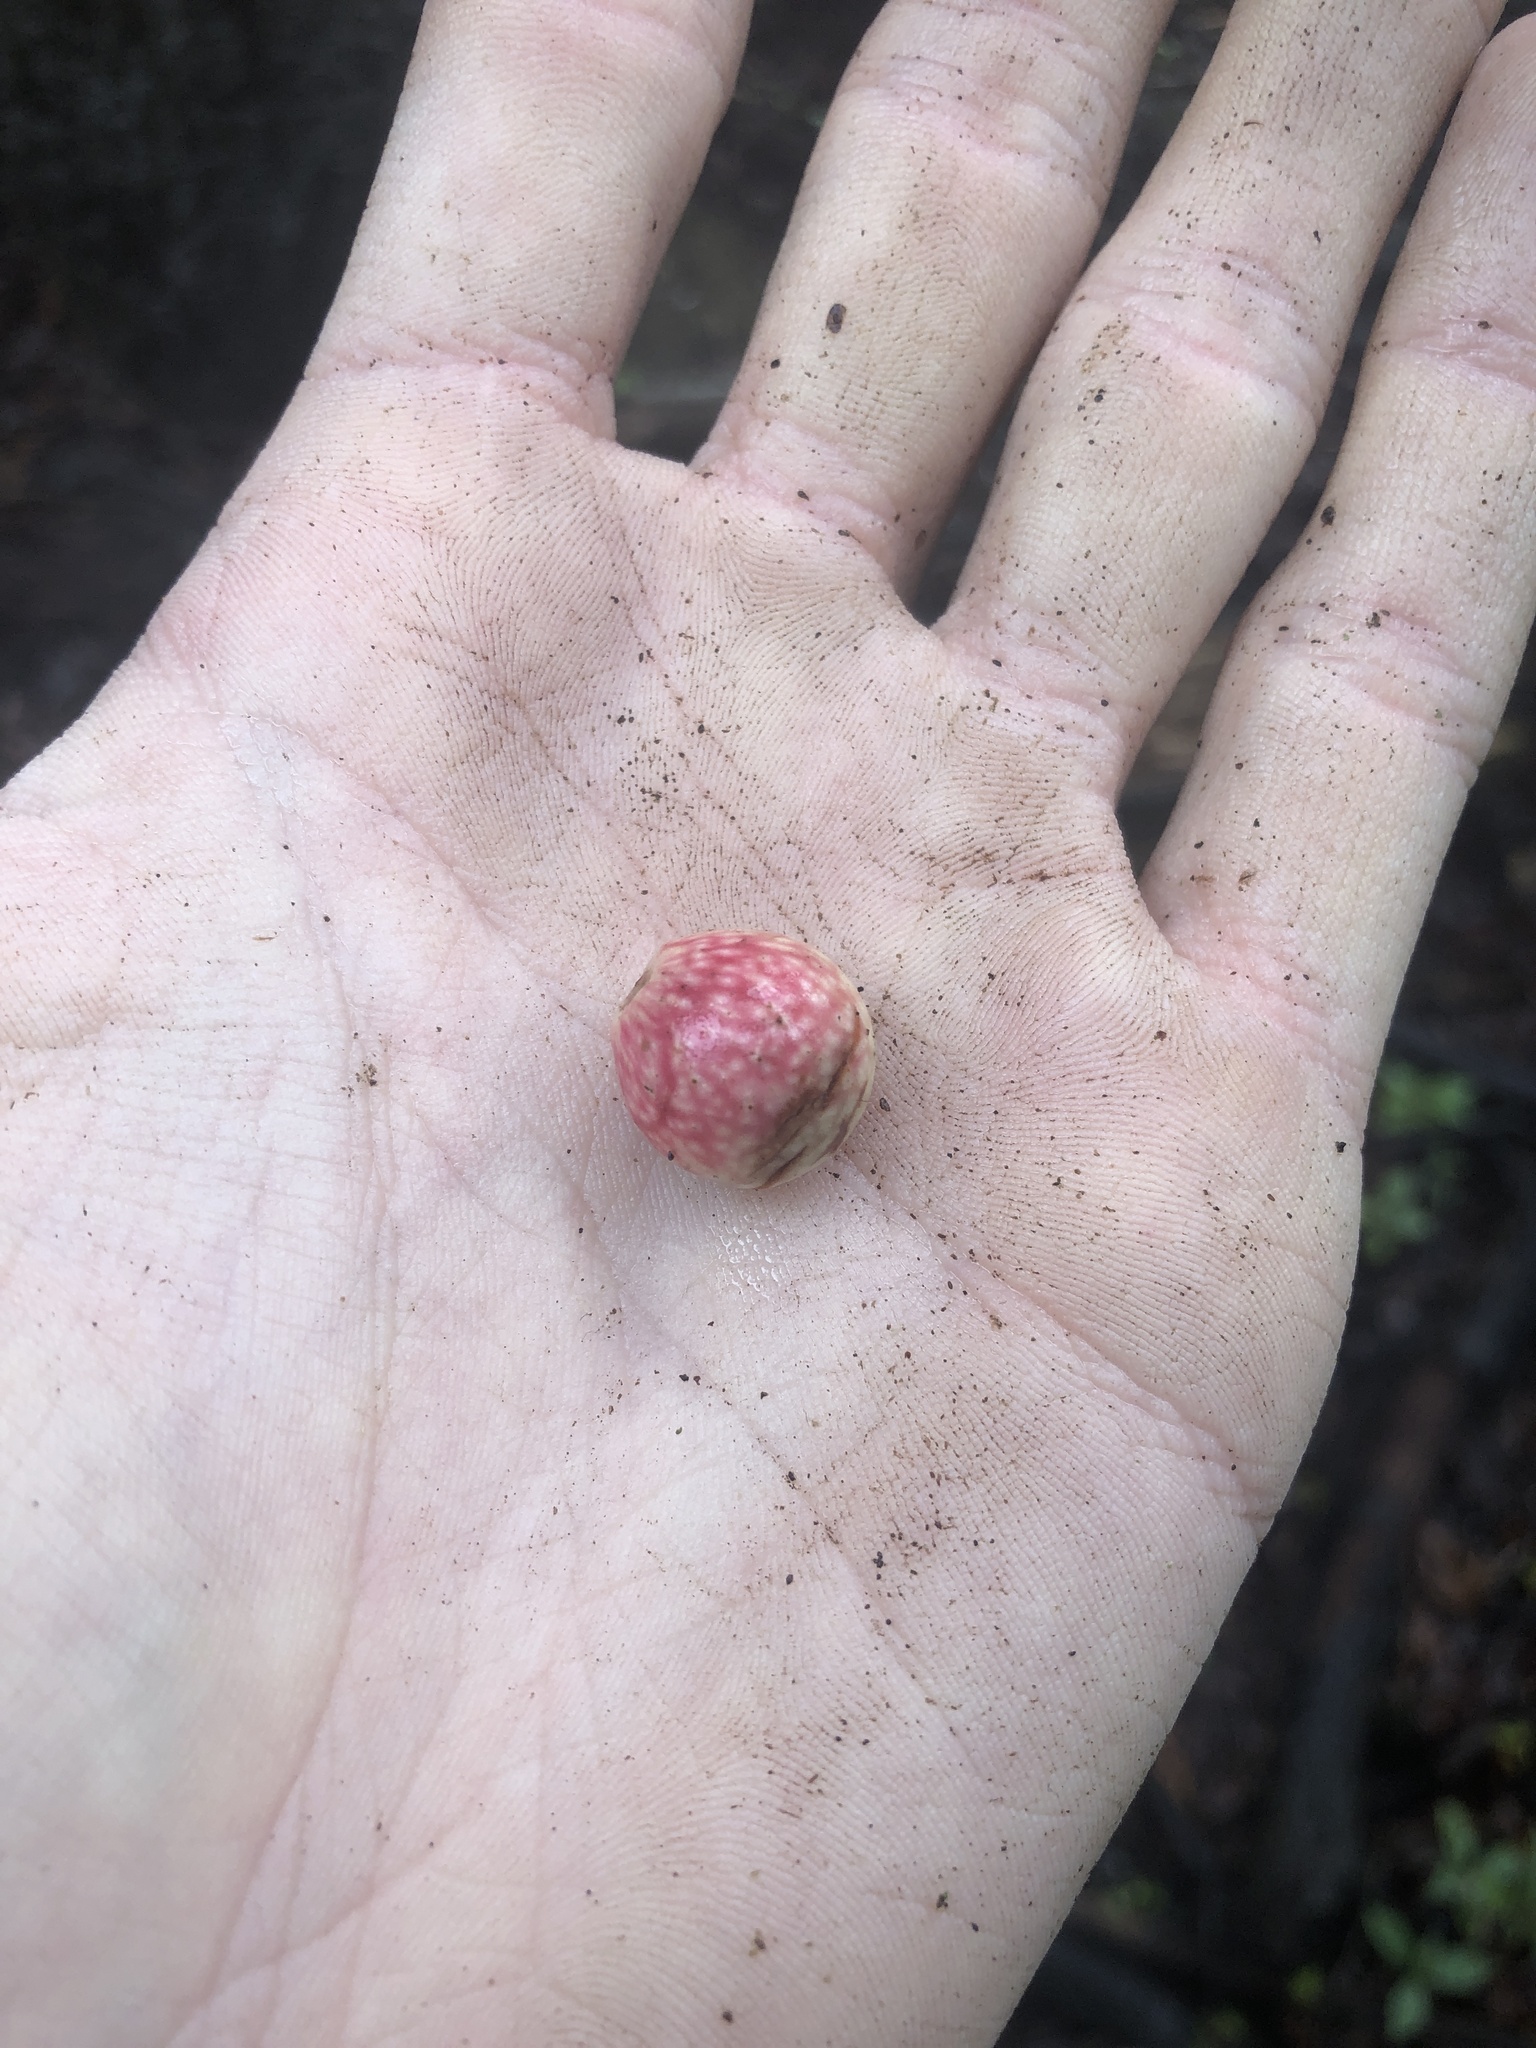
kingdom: Animalia
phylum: Arthropoda
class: Insecta
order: Hymenoptera
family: Cynipidae
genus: Amphibolips
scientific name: Amphibolips
